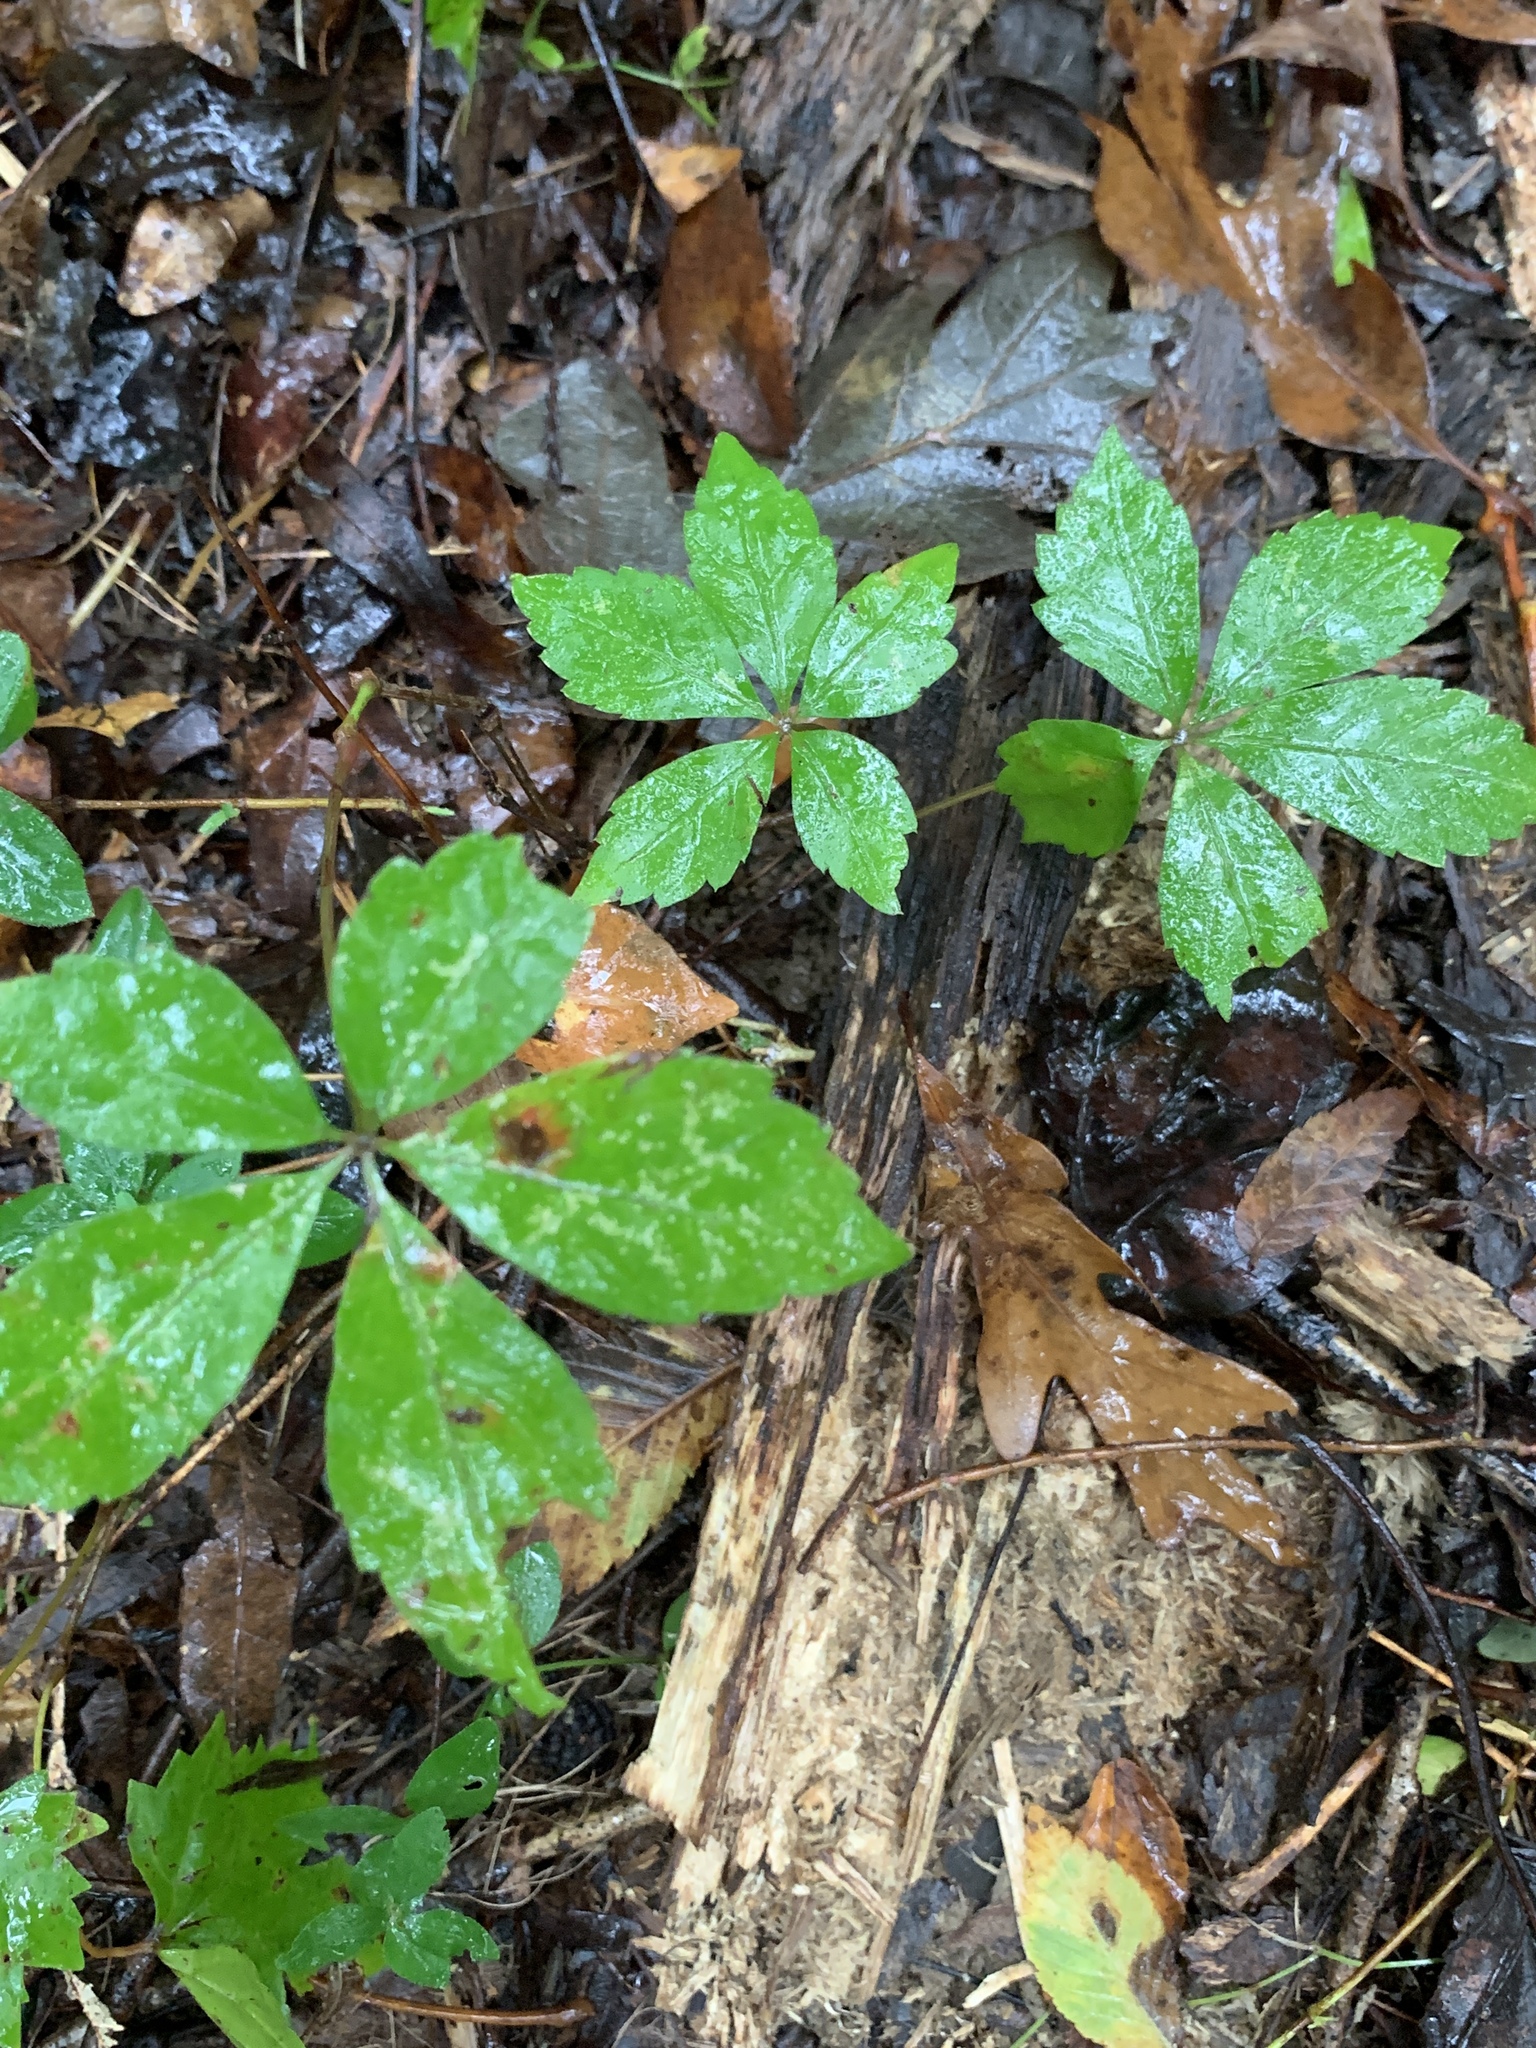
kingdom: Plantae
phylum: Tracheophyta
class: Magnoliopsida
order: Vitales
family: Vitaceae
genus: Parthenocissus
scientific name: Parthenocissus quinquefolia
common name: Virginia-creeper
